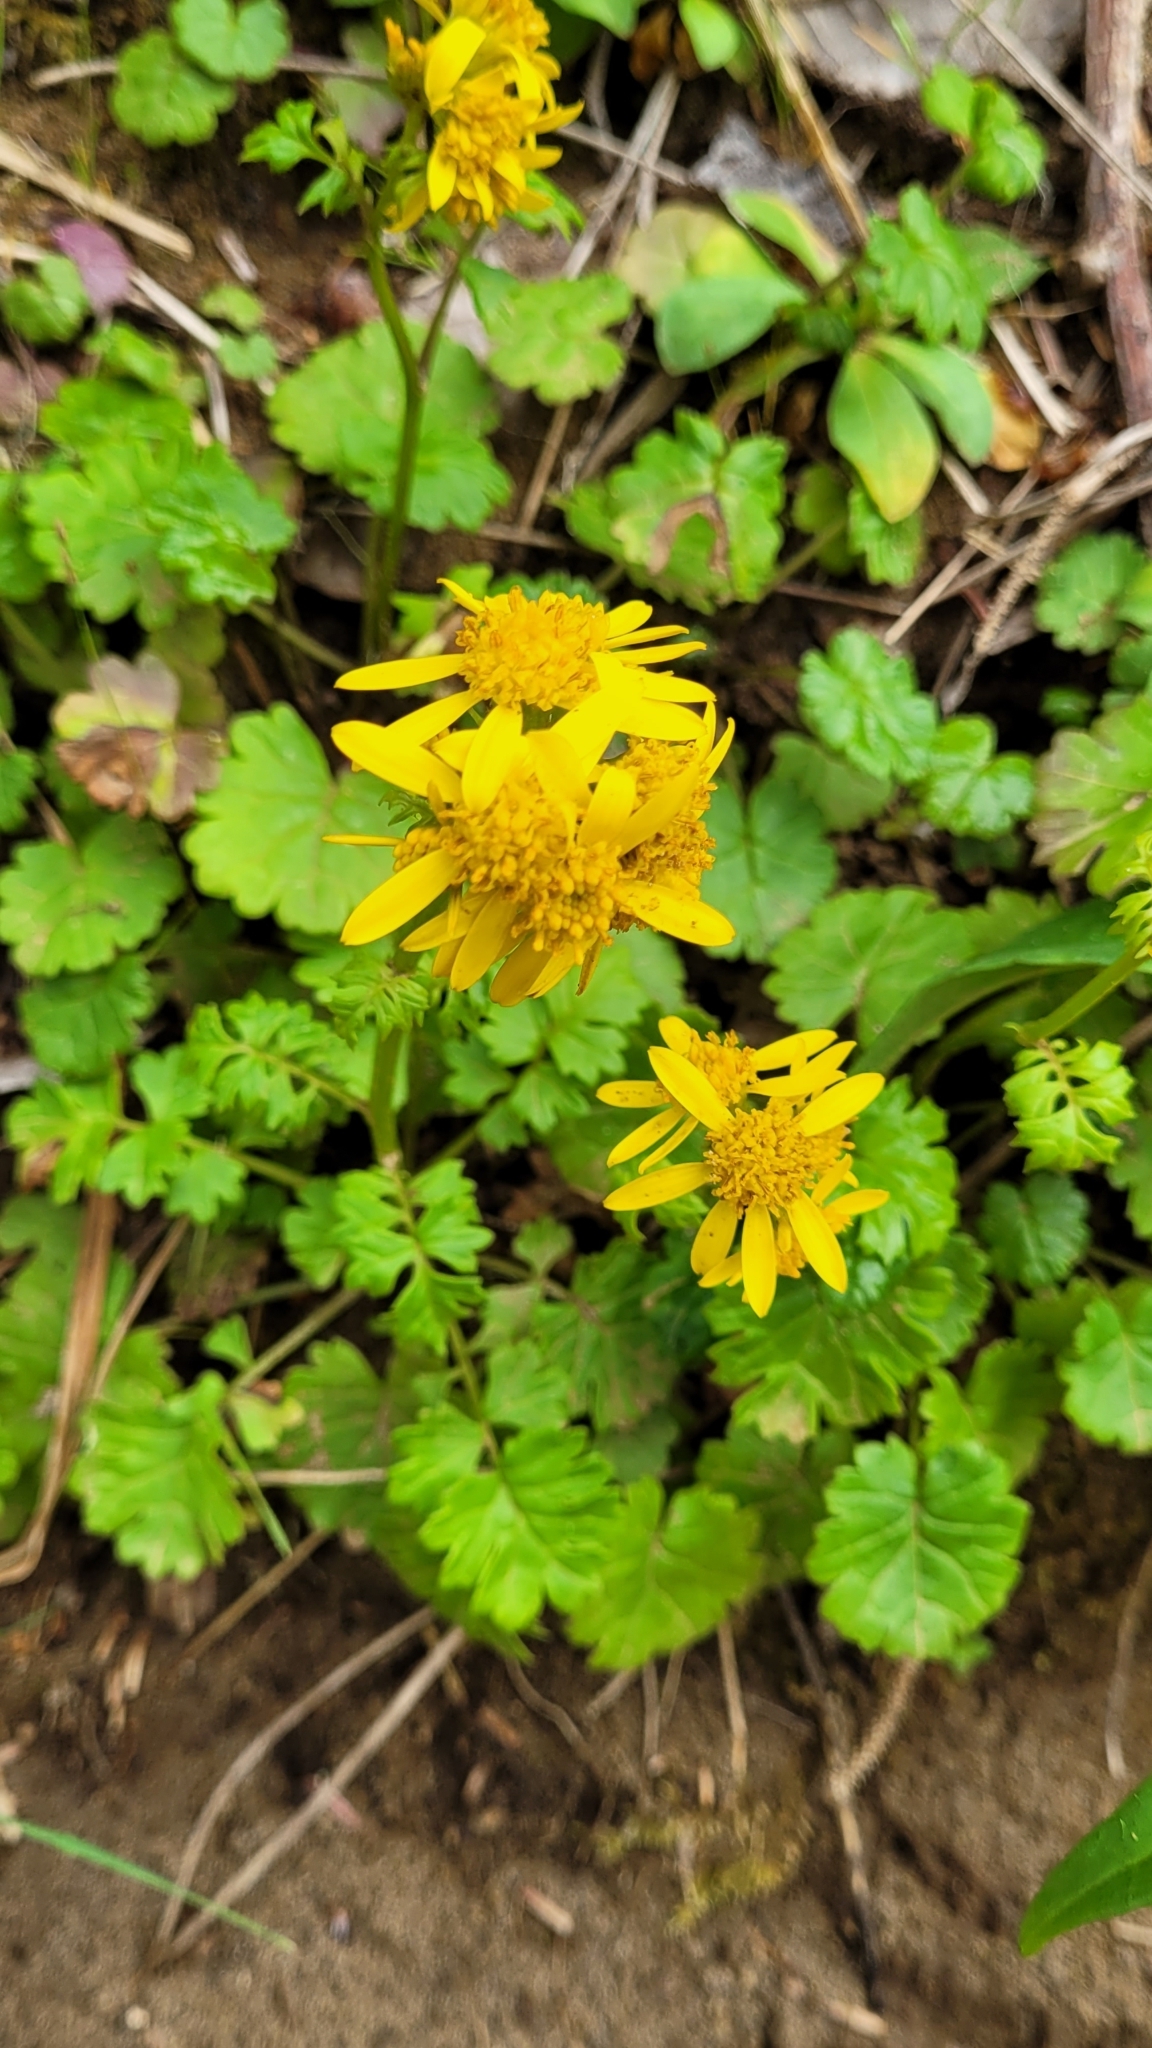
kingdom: Plantae
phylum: Tracheophyta
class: Magnoliopsida
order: Asterales
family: Asteraceae
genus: Packera
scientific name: Packera bolanderi
